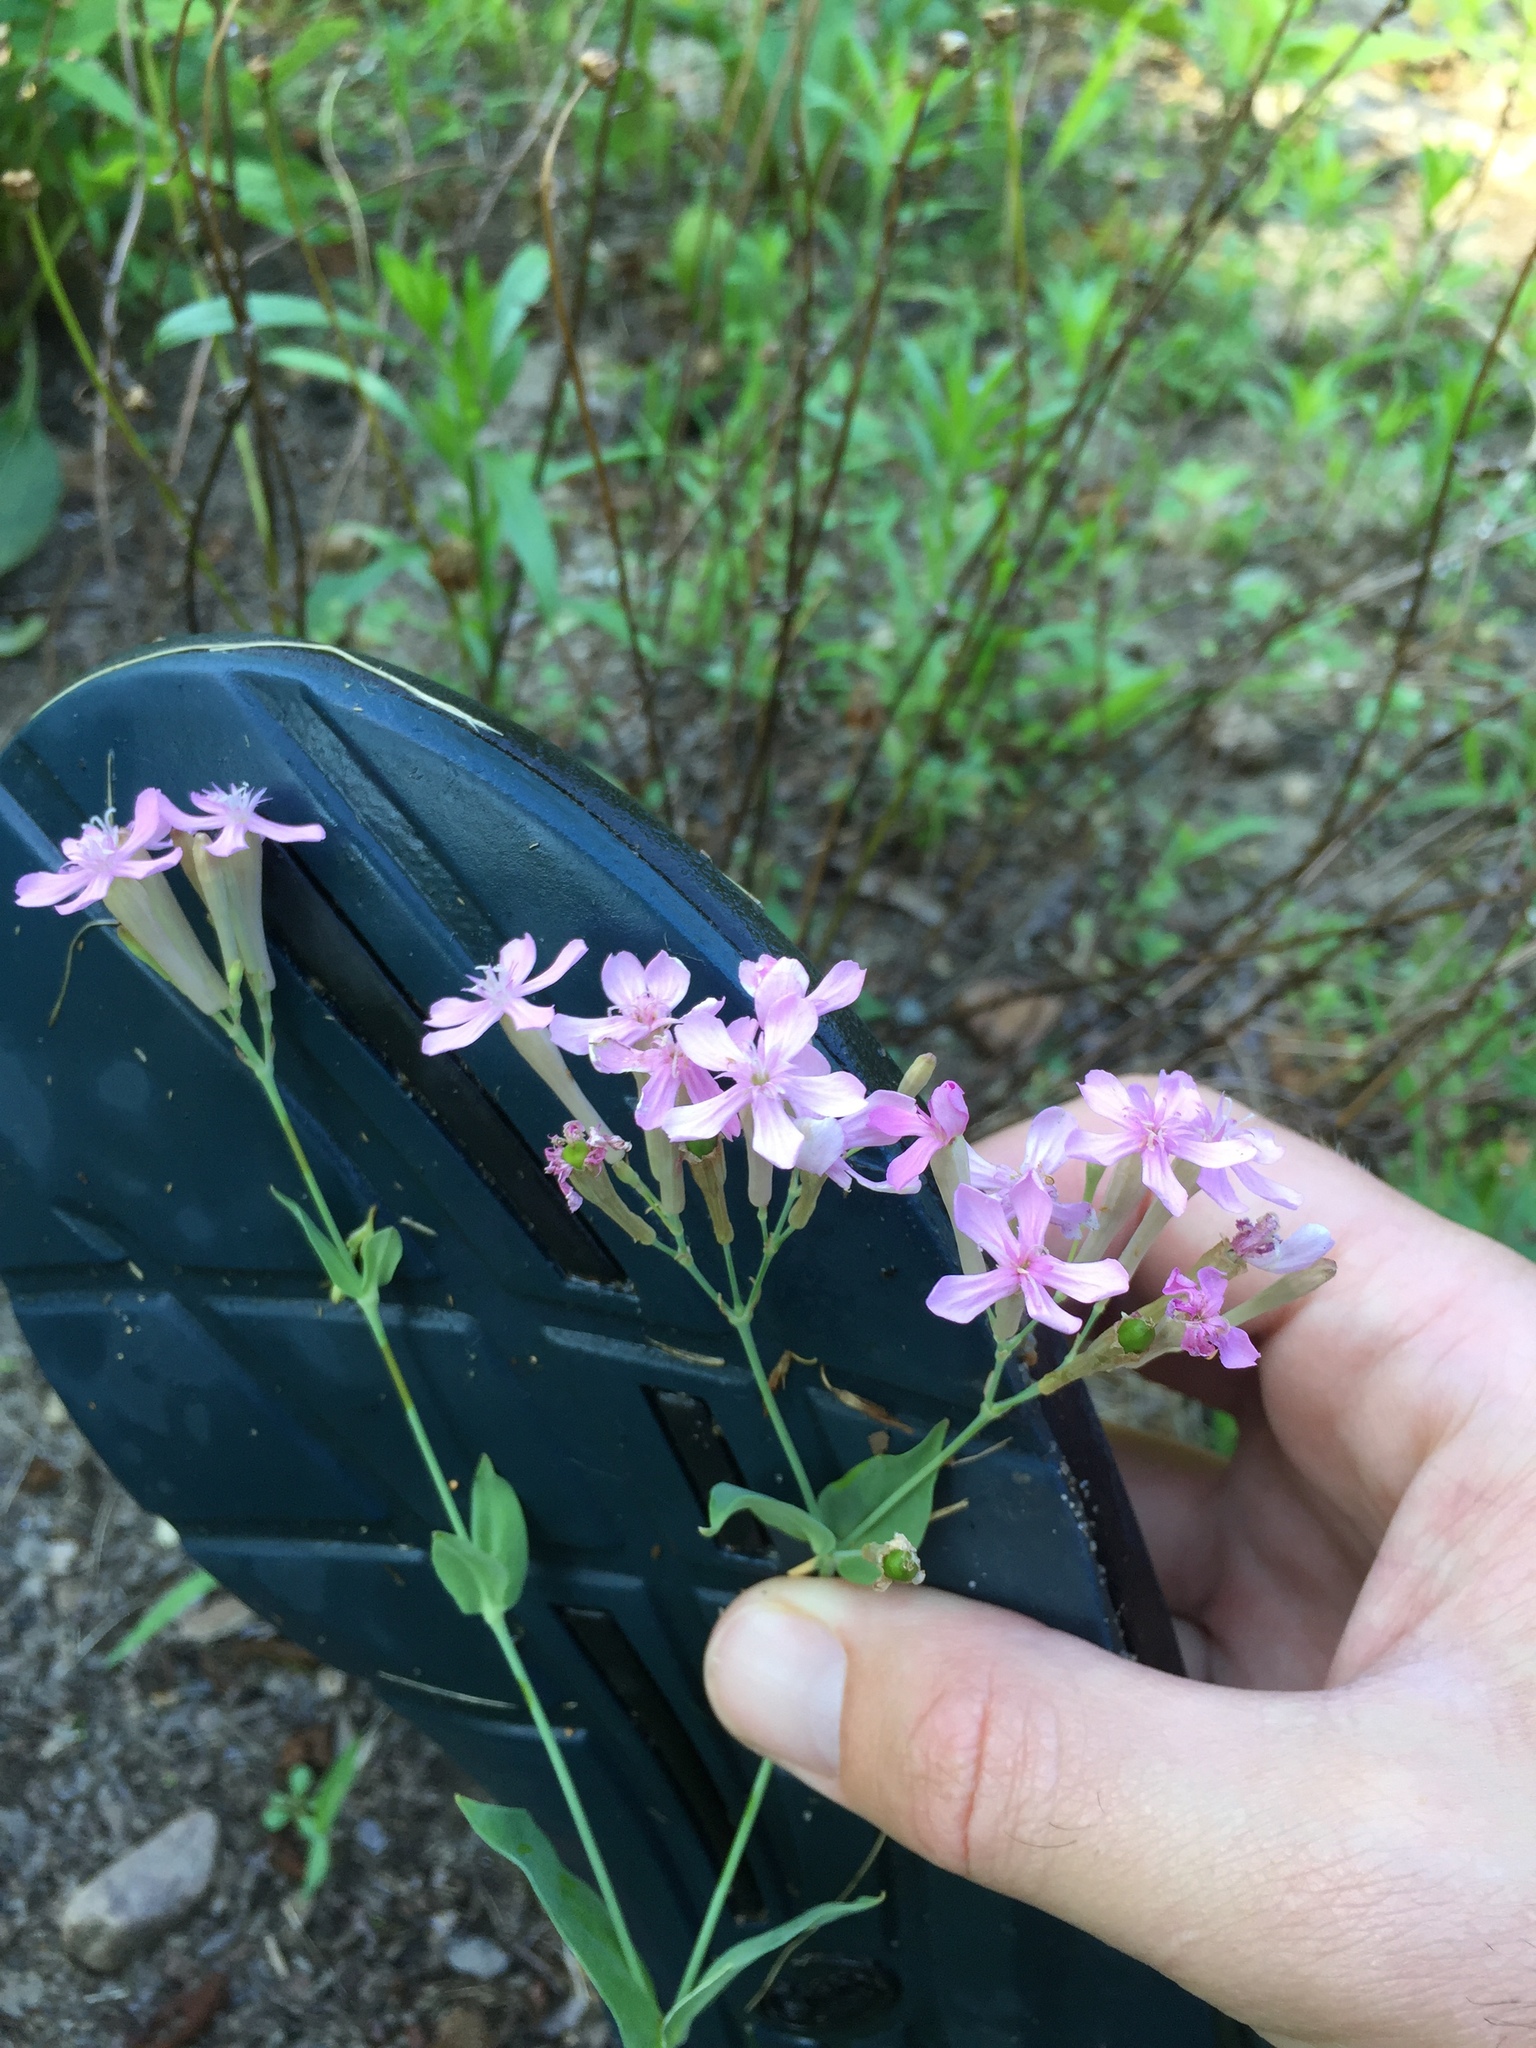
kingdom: Plantae
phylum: Tracheophyta
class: Magnoliopsida
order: Caryophyllales
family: Caryophyllaceae
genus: Atocion
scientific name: Atocion armeria
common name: Sweet william catchfly
